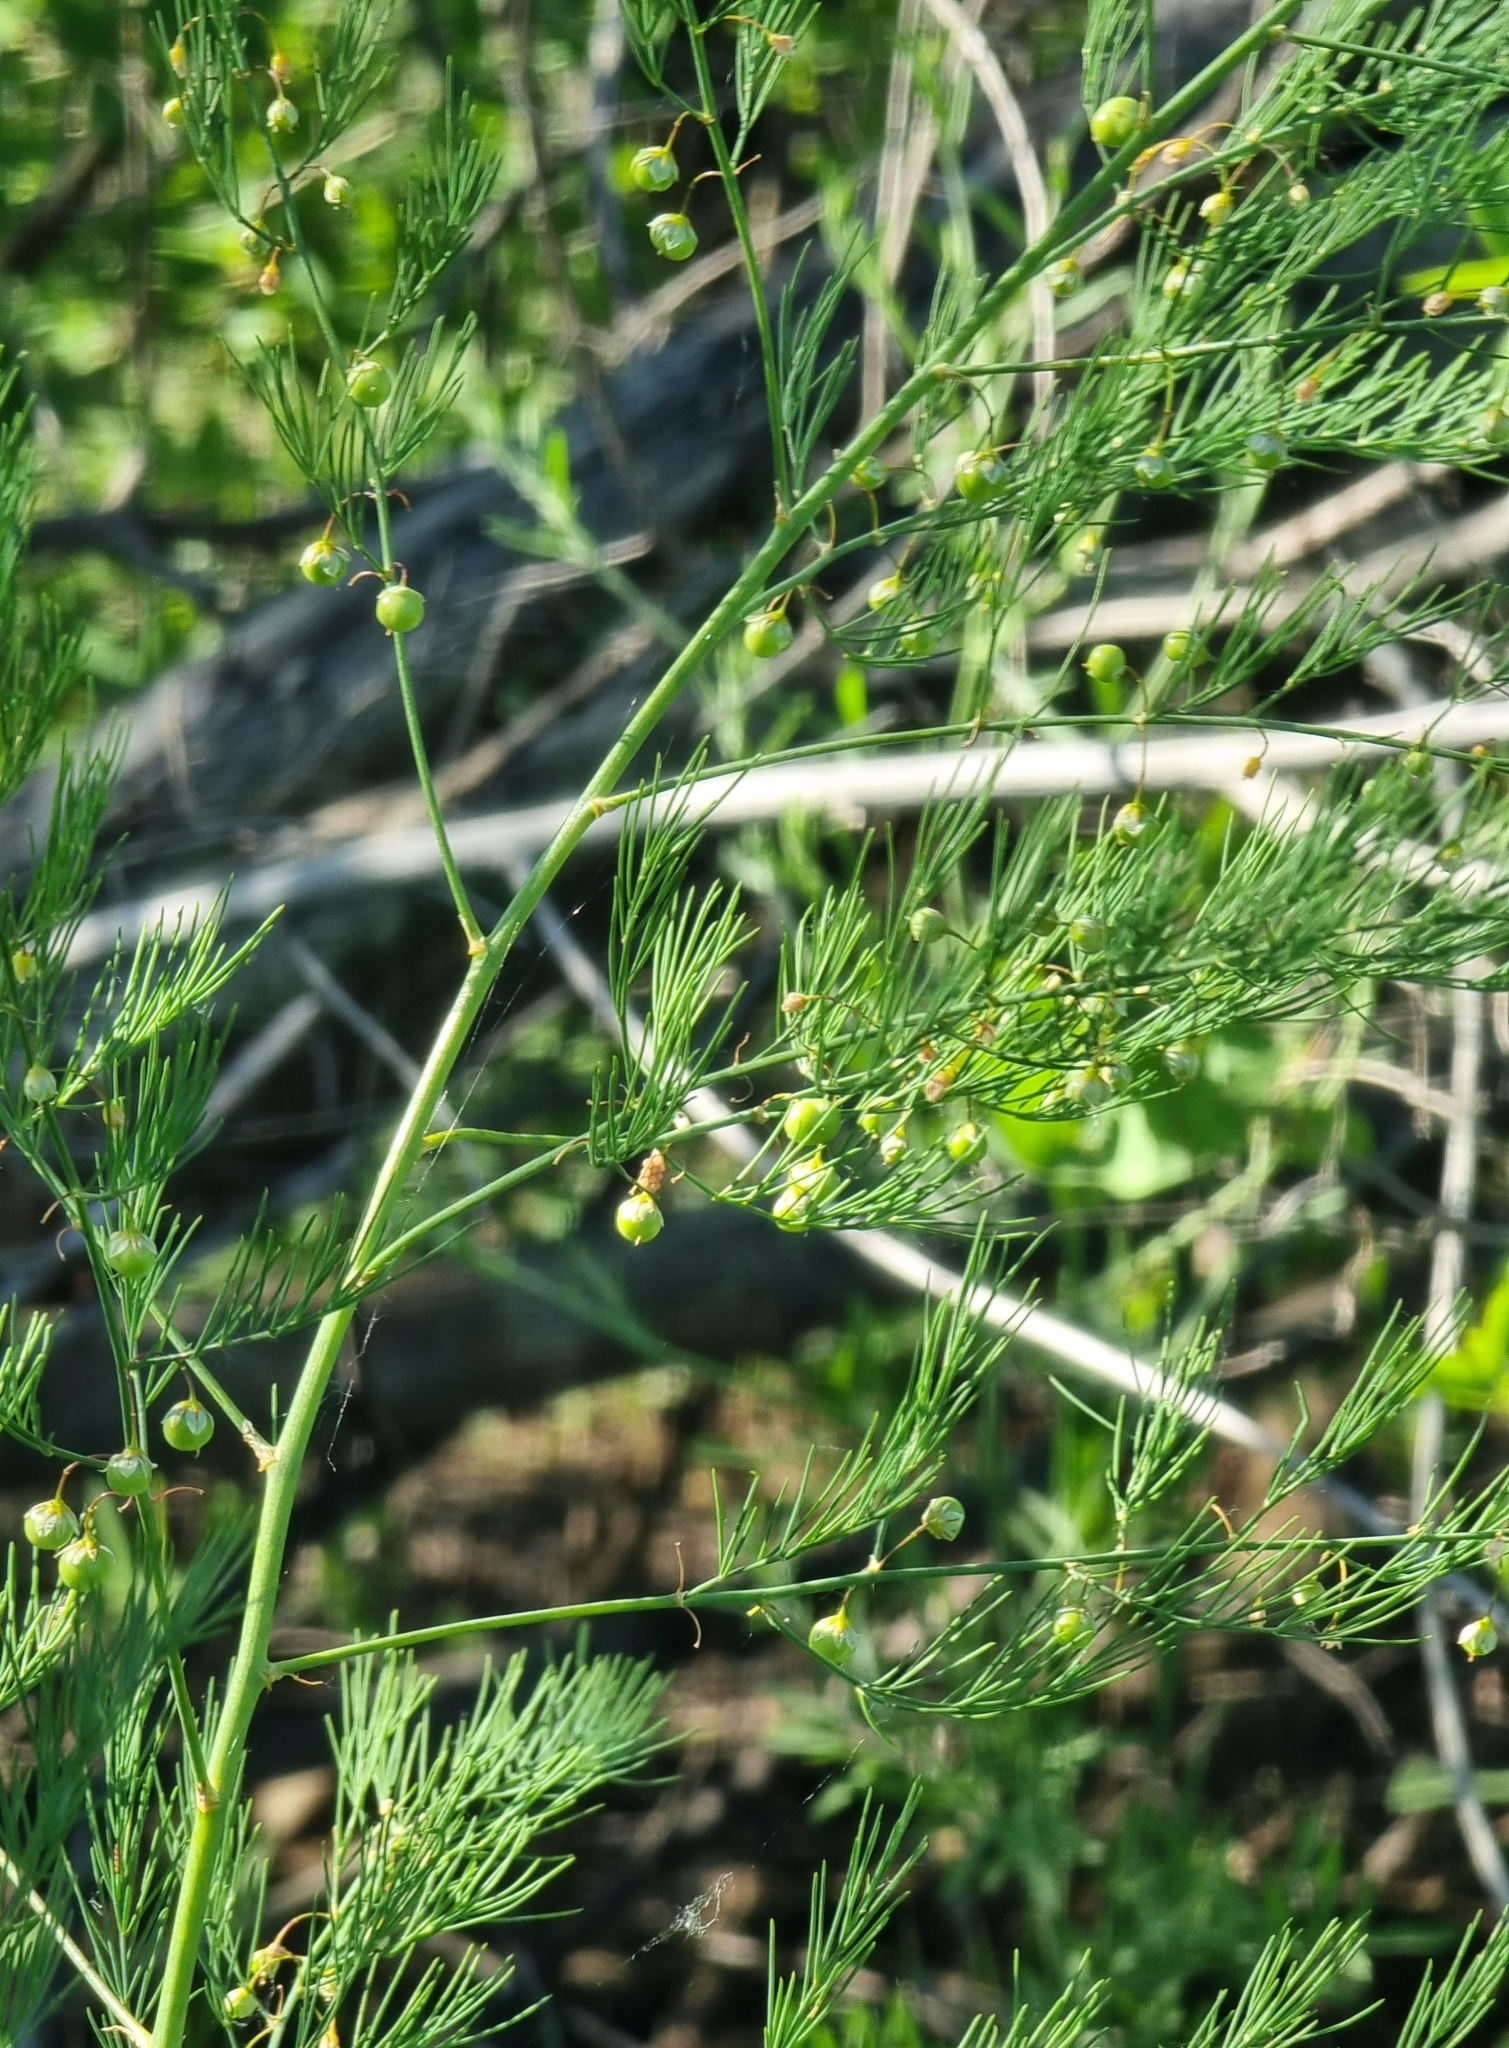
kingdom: Plantae
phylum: Tracheophyta
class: Liliopsida
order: Asparagales
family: Asparagaceae
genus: Asparagus
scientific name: Asparagus officinalis
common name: Garden asparagus
